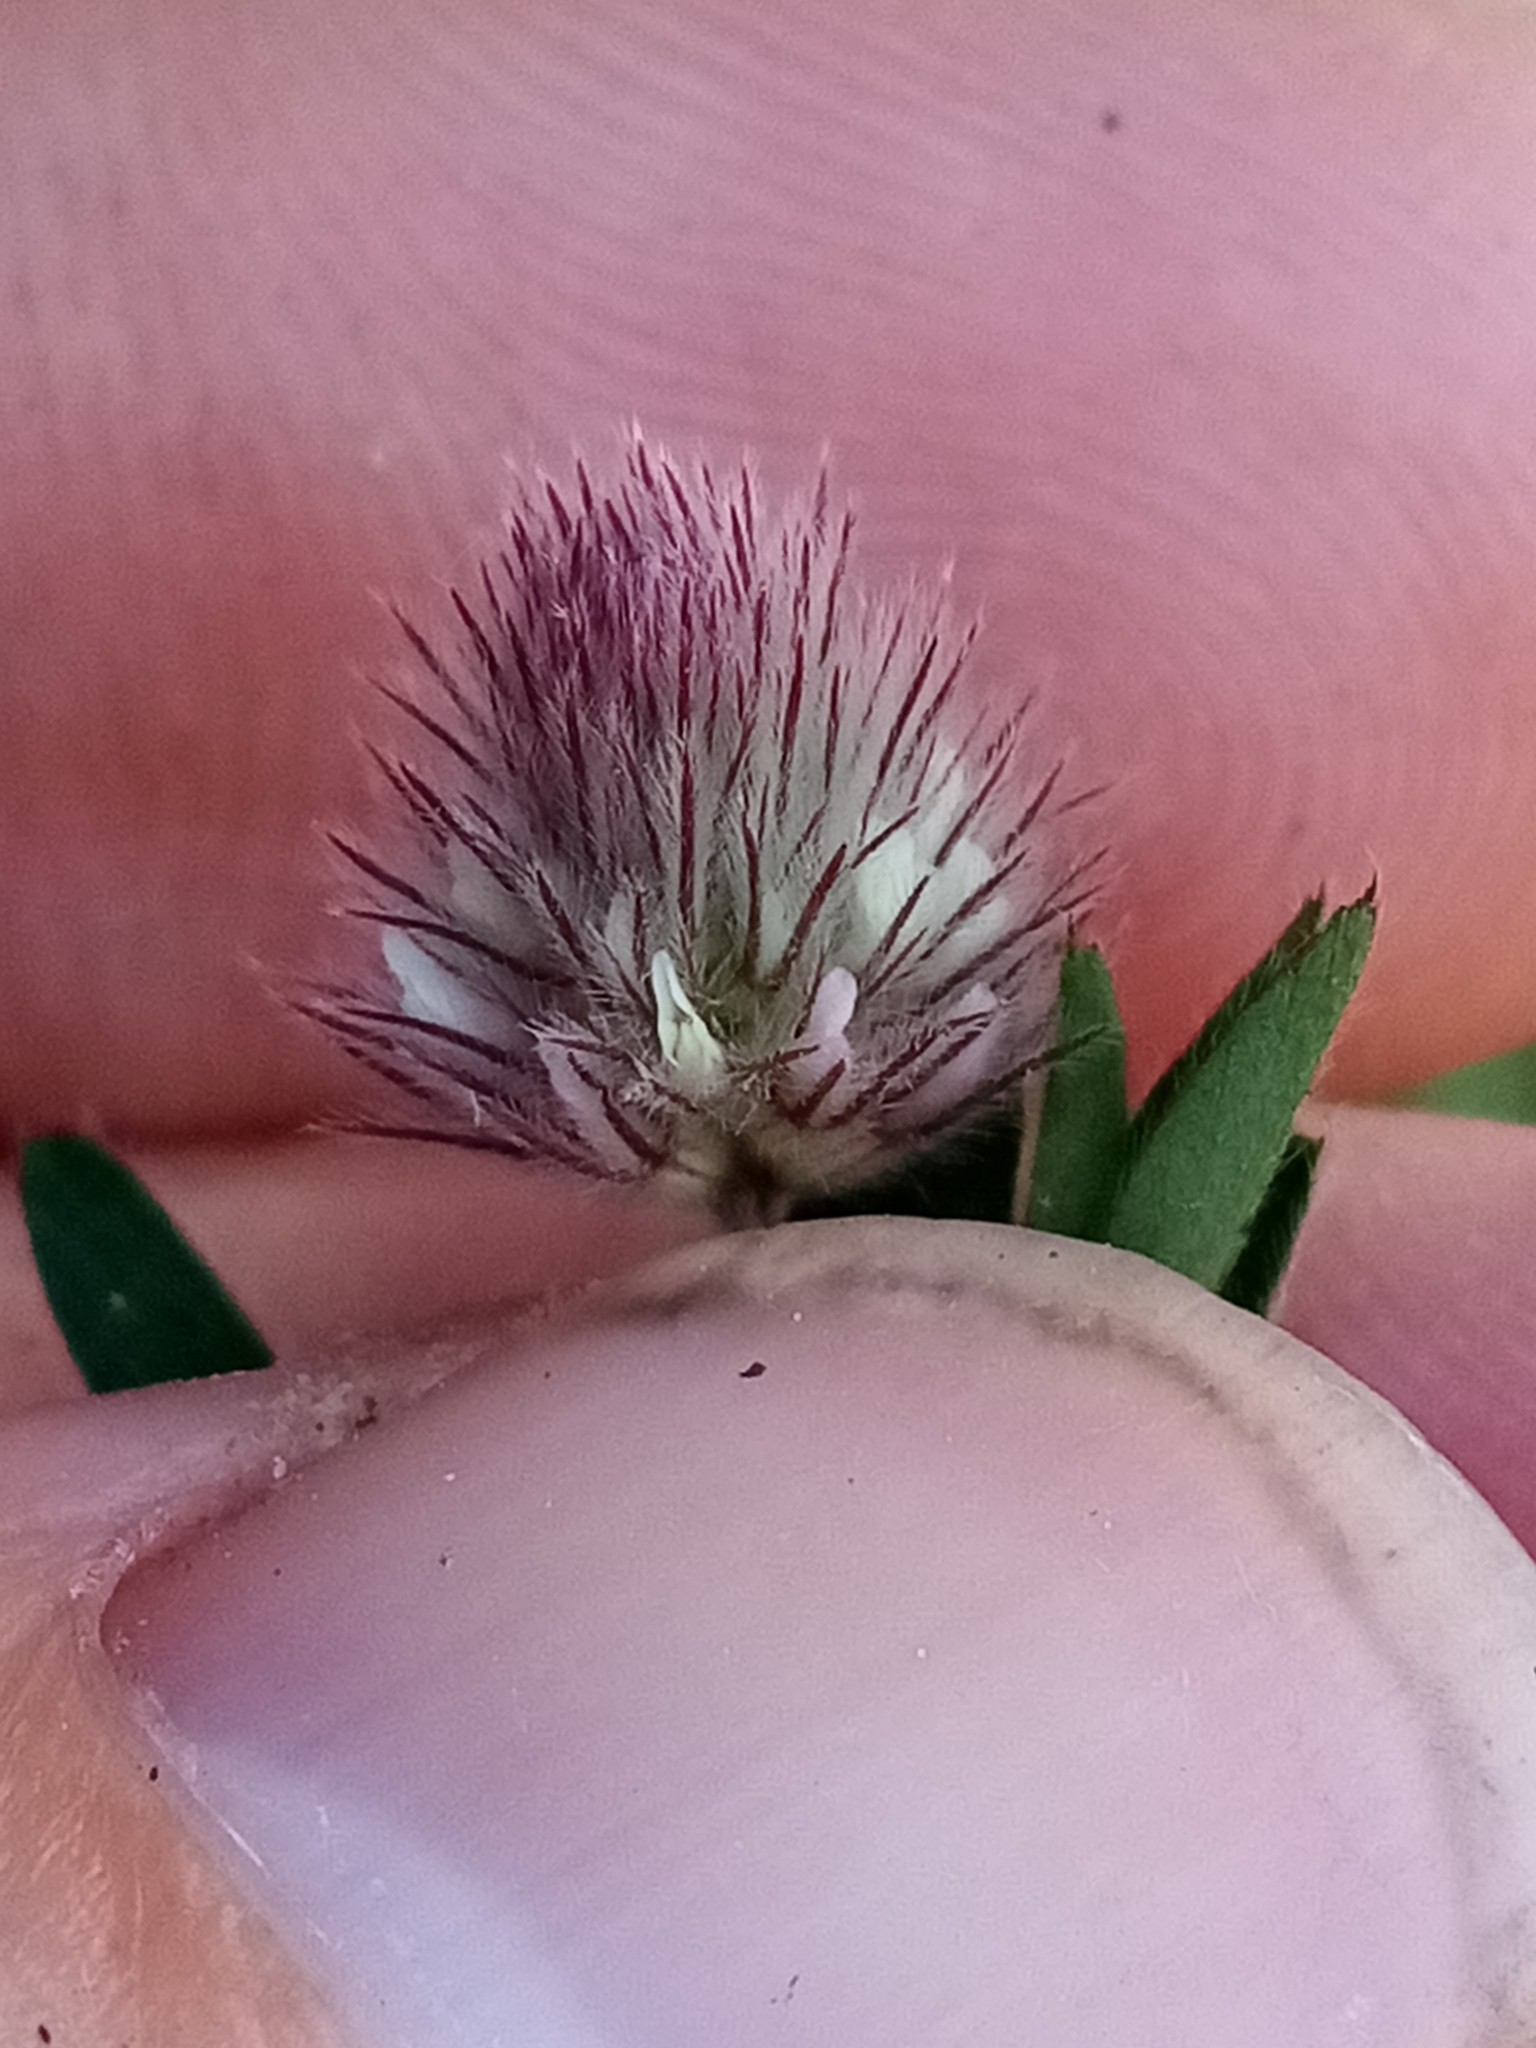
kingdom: Plantae
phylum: Tracheophyta
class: Magnoliopsida
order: Fabales
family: Fabaceae
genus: Trifolium
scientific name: Trifolium arvense
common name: Hare's-foot clover
